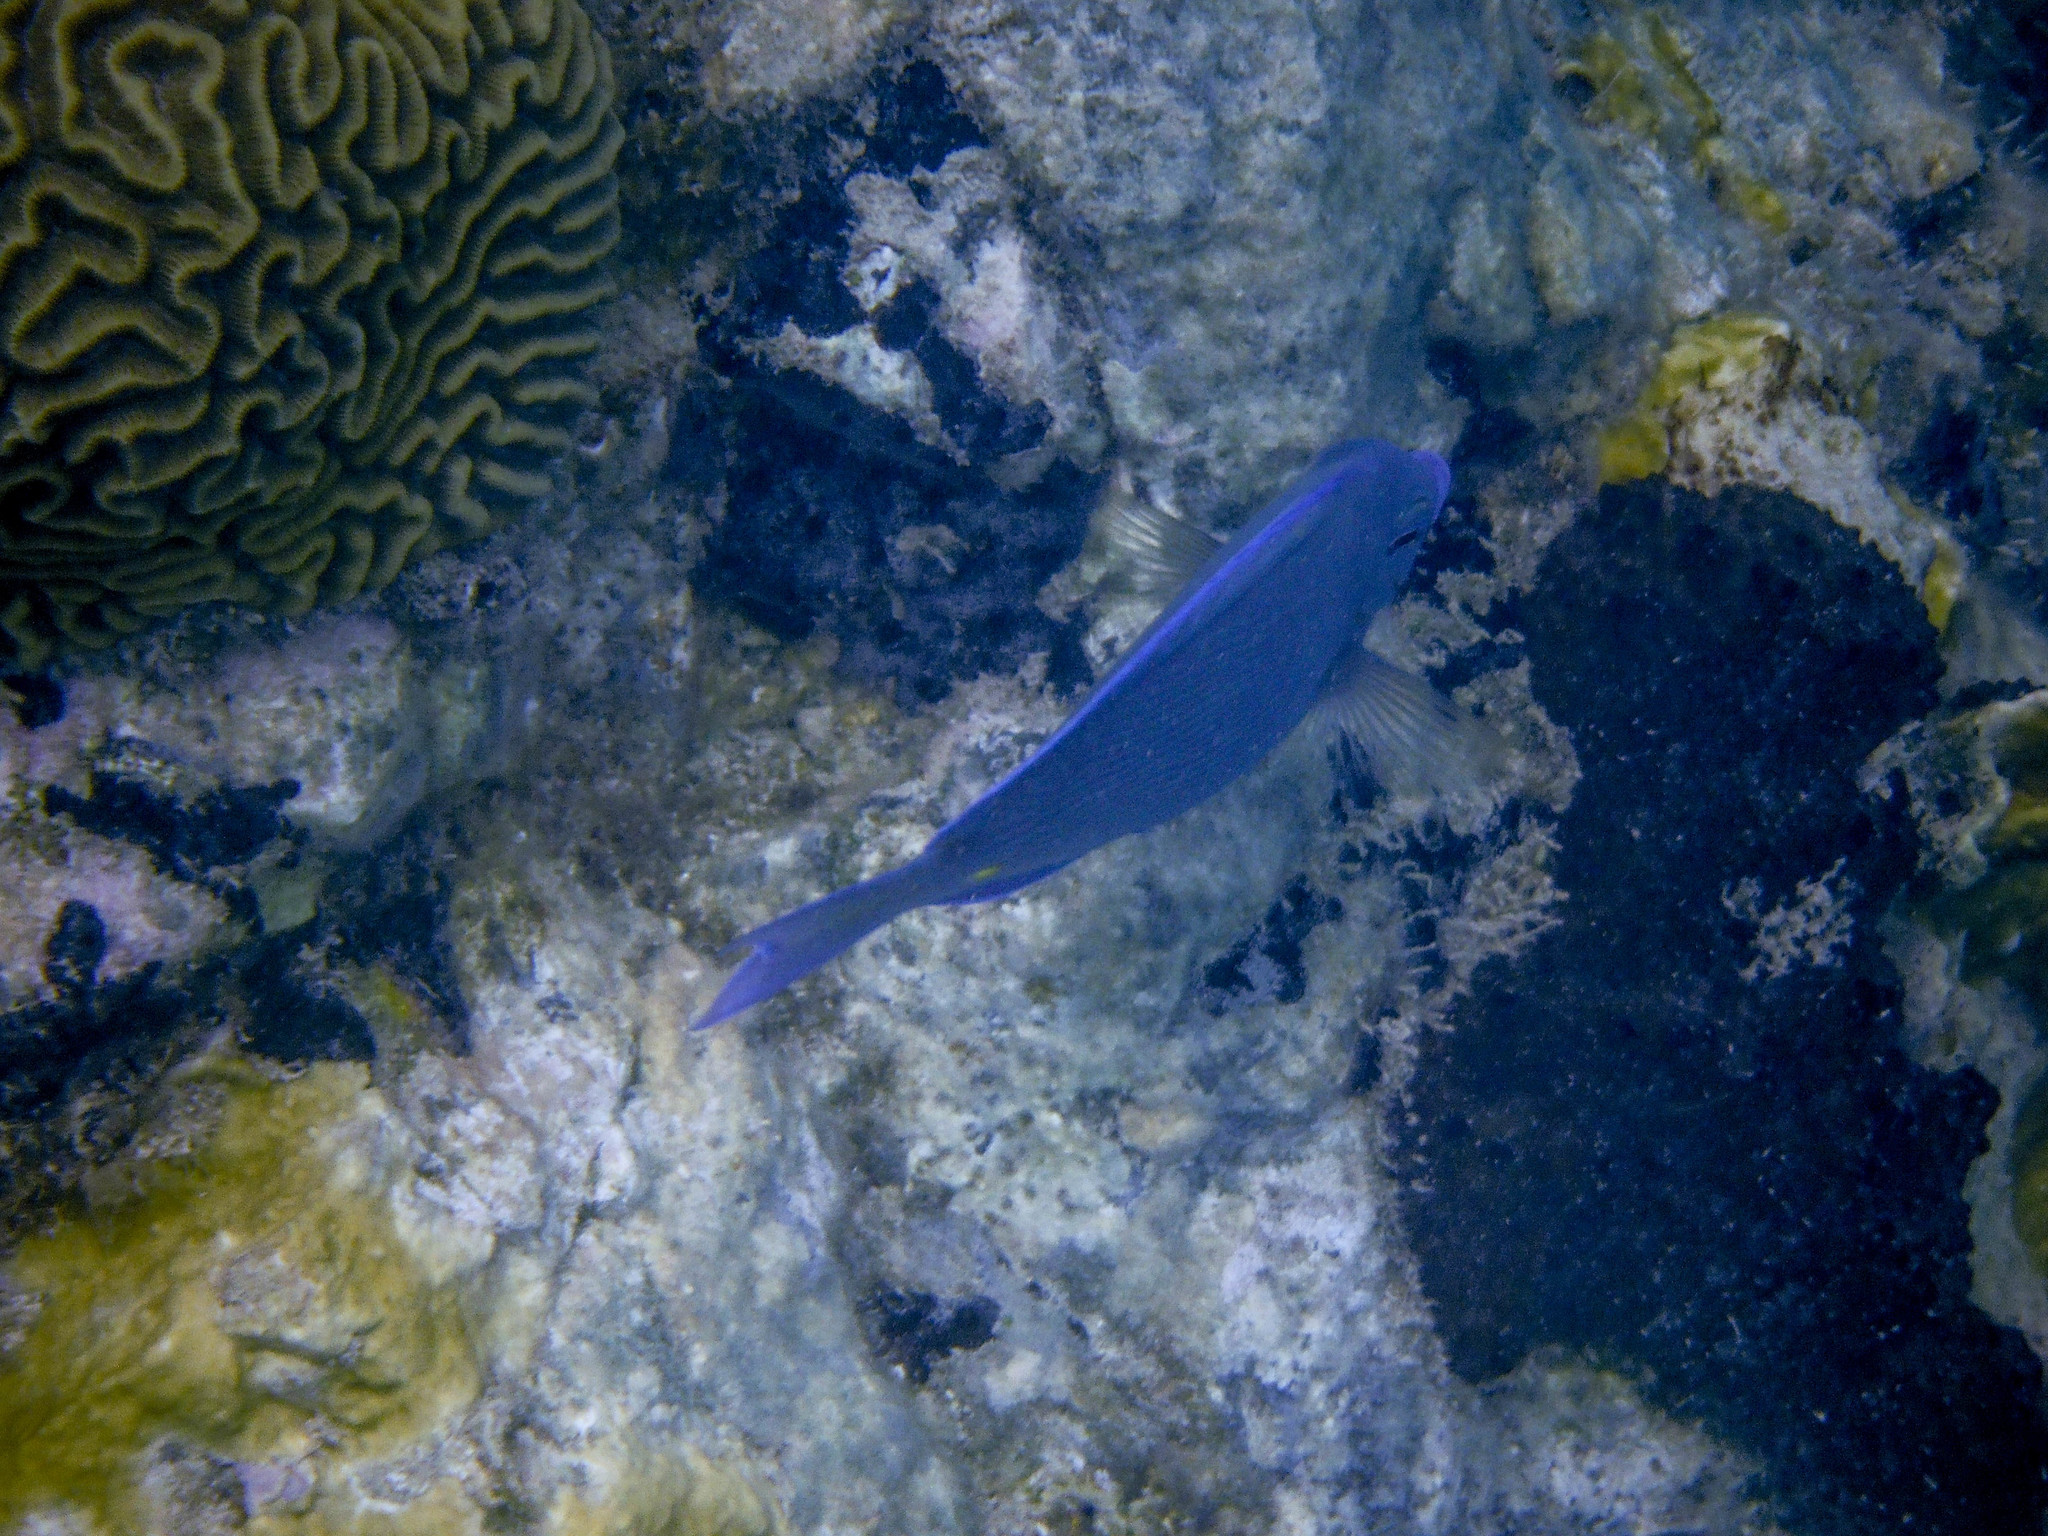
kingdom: Animalia
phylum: Cnidaria
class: Anthozoa
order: Scleractinia
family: Faviidae
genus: Pseudodiploria
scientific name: Pseudodiploria strigosa
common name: Symmetrical brain coral
